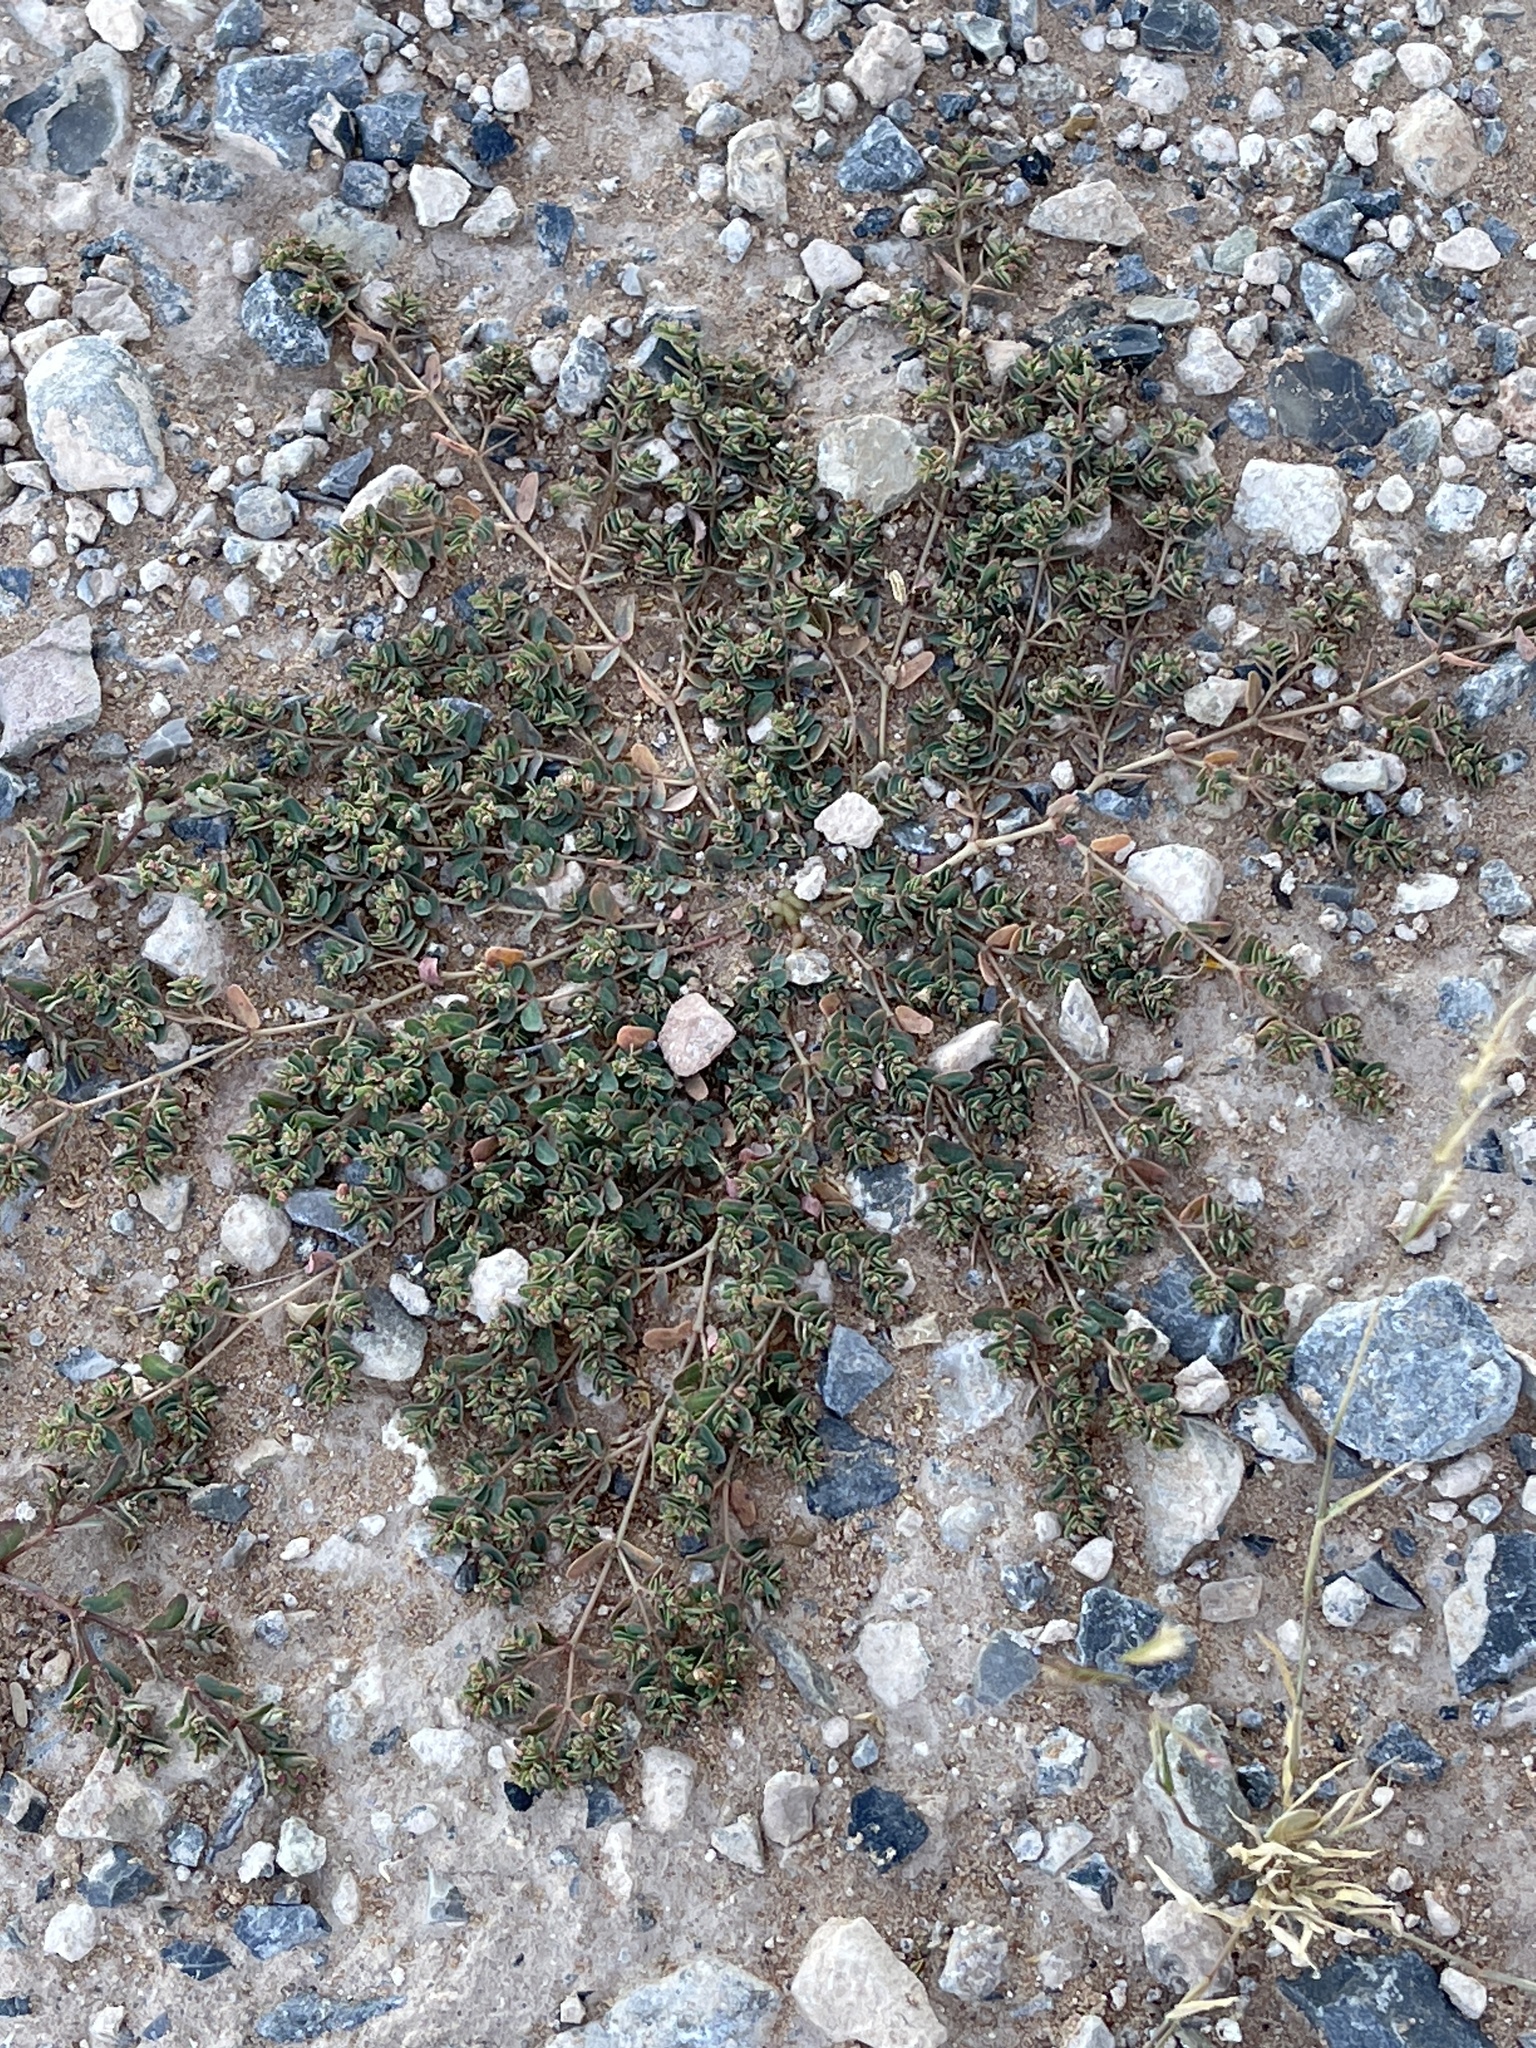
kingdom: Plantae
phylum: Tracheophyta
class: Magnoliopsida
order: Malpighiales
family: Euphorbiaceae
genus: Euphorbia
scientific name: Euphorbia glyptosperma
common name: Corrugate-seeded spurge
